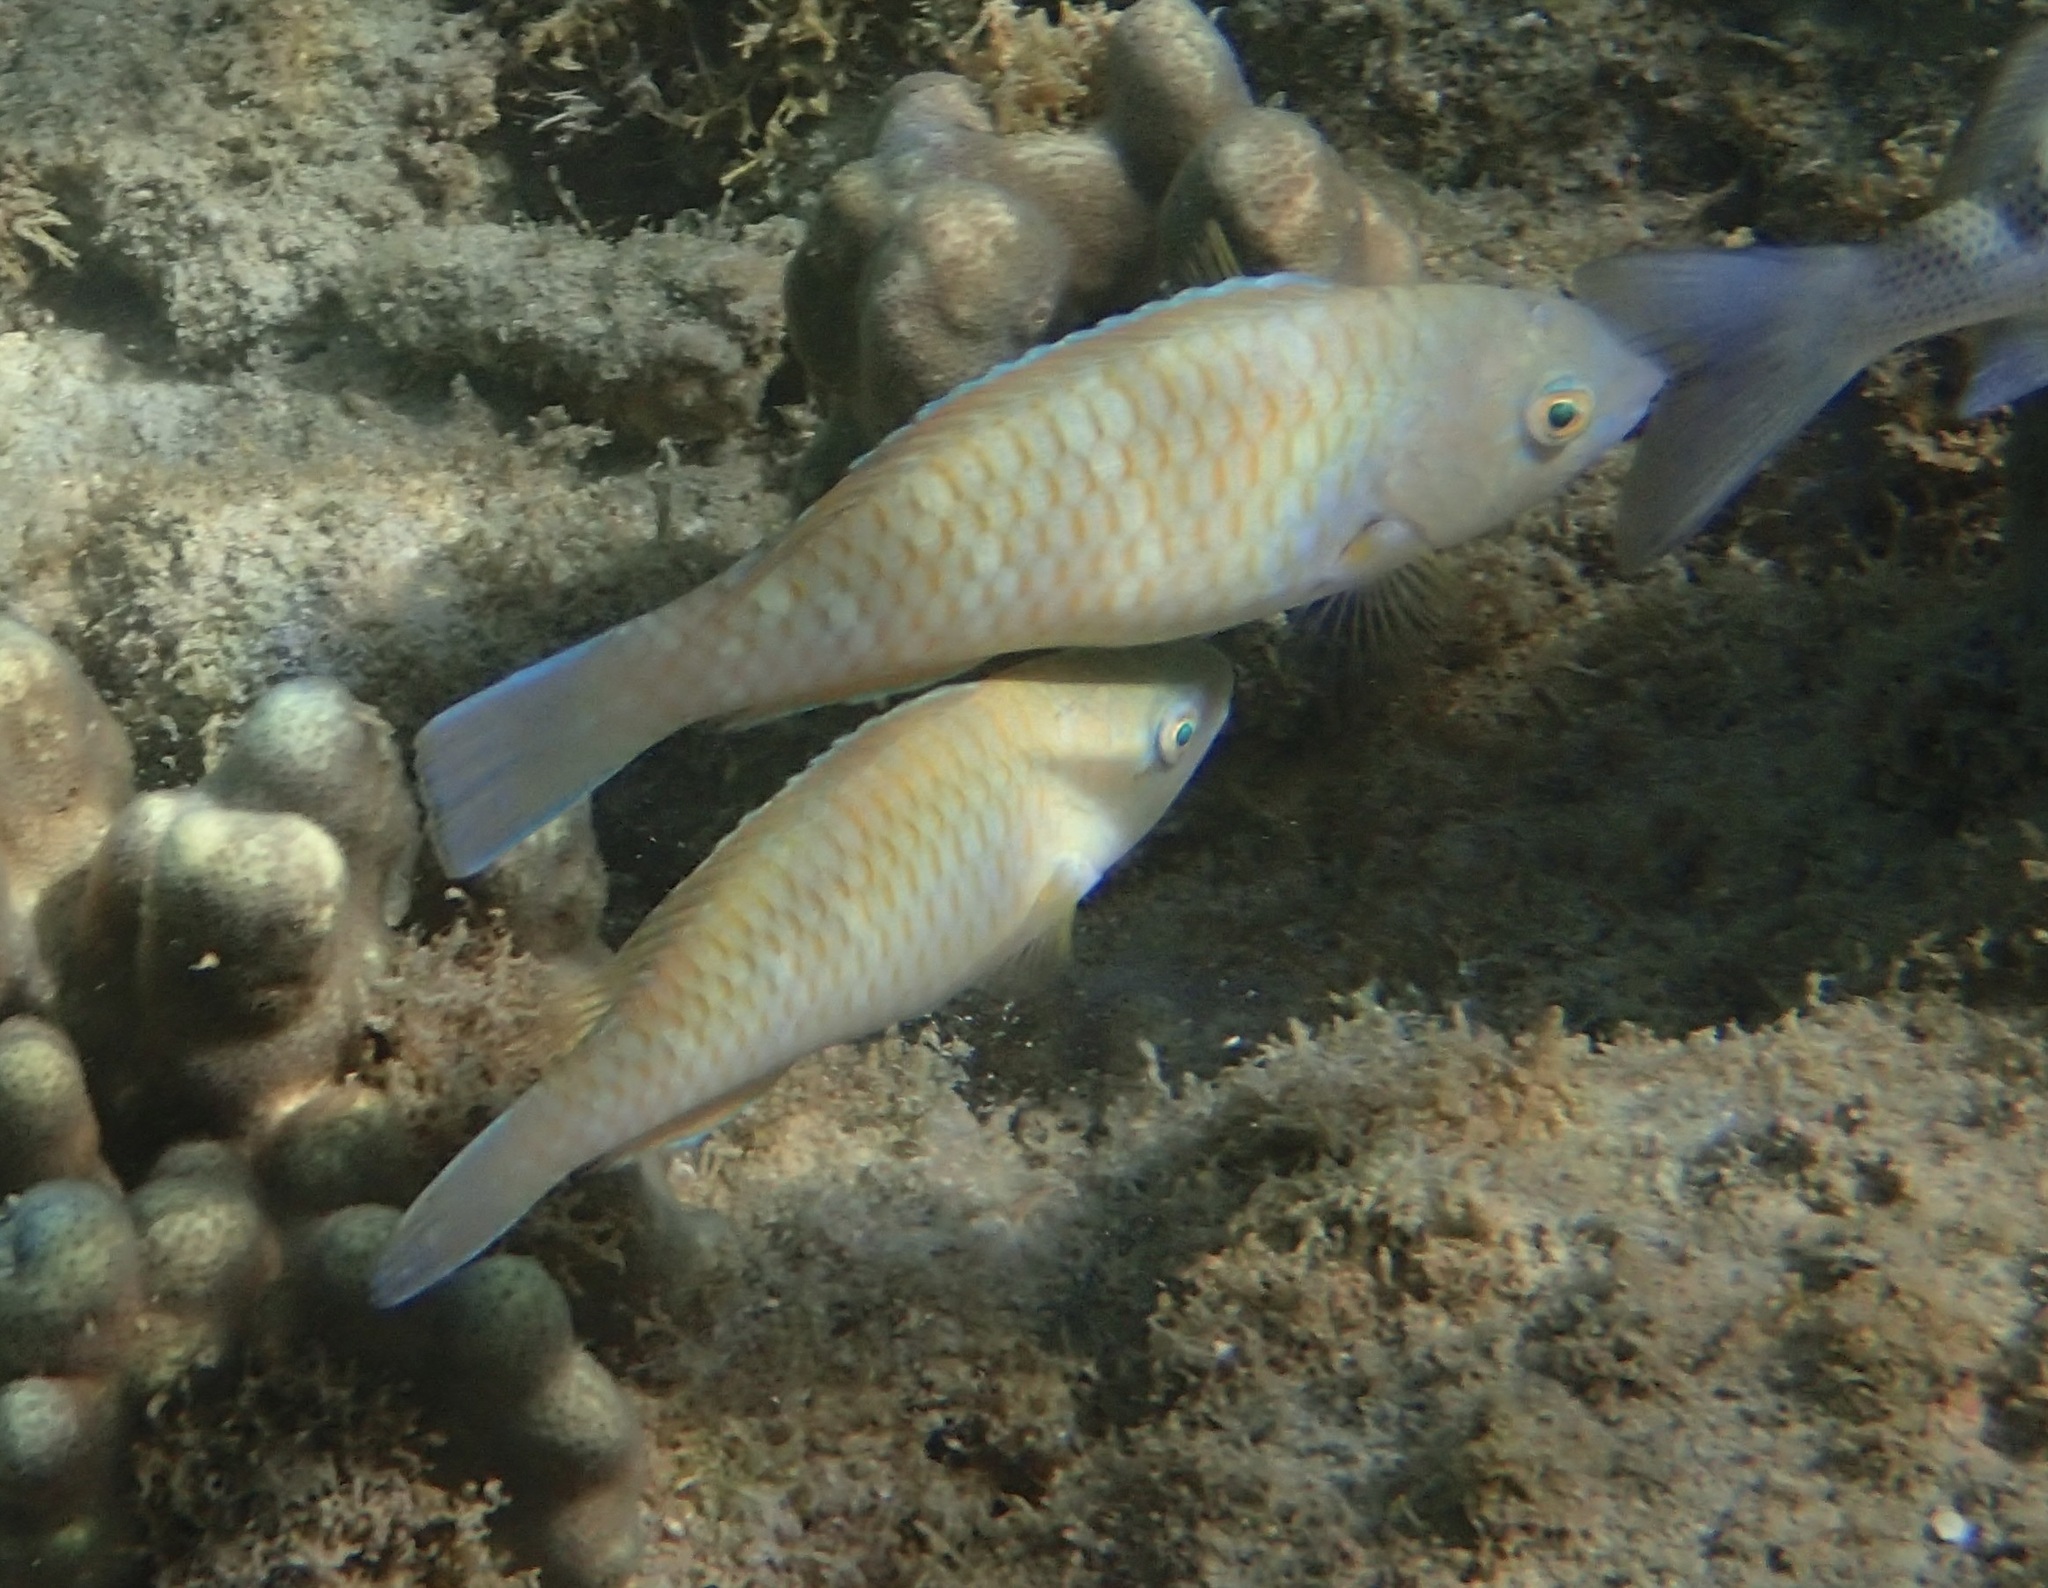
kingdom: Animalia
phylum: Chordata
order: Perciformes
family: Scaridae
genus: Scarus
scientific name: Scarus ghobban
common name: Blue-barred parrotfish
